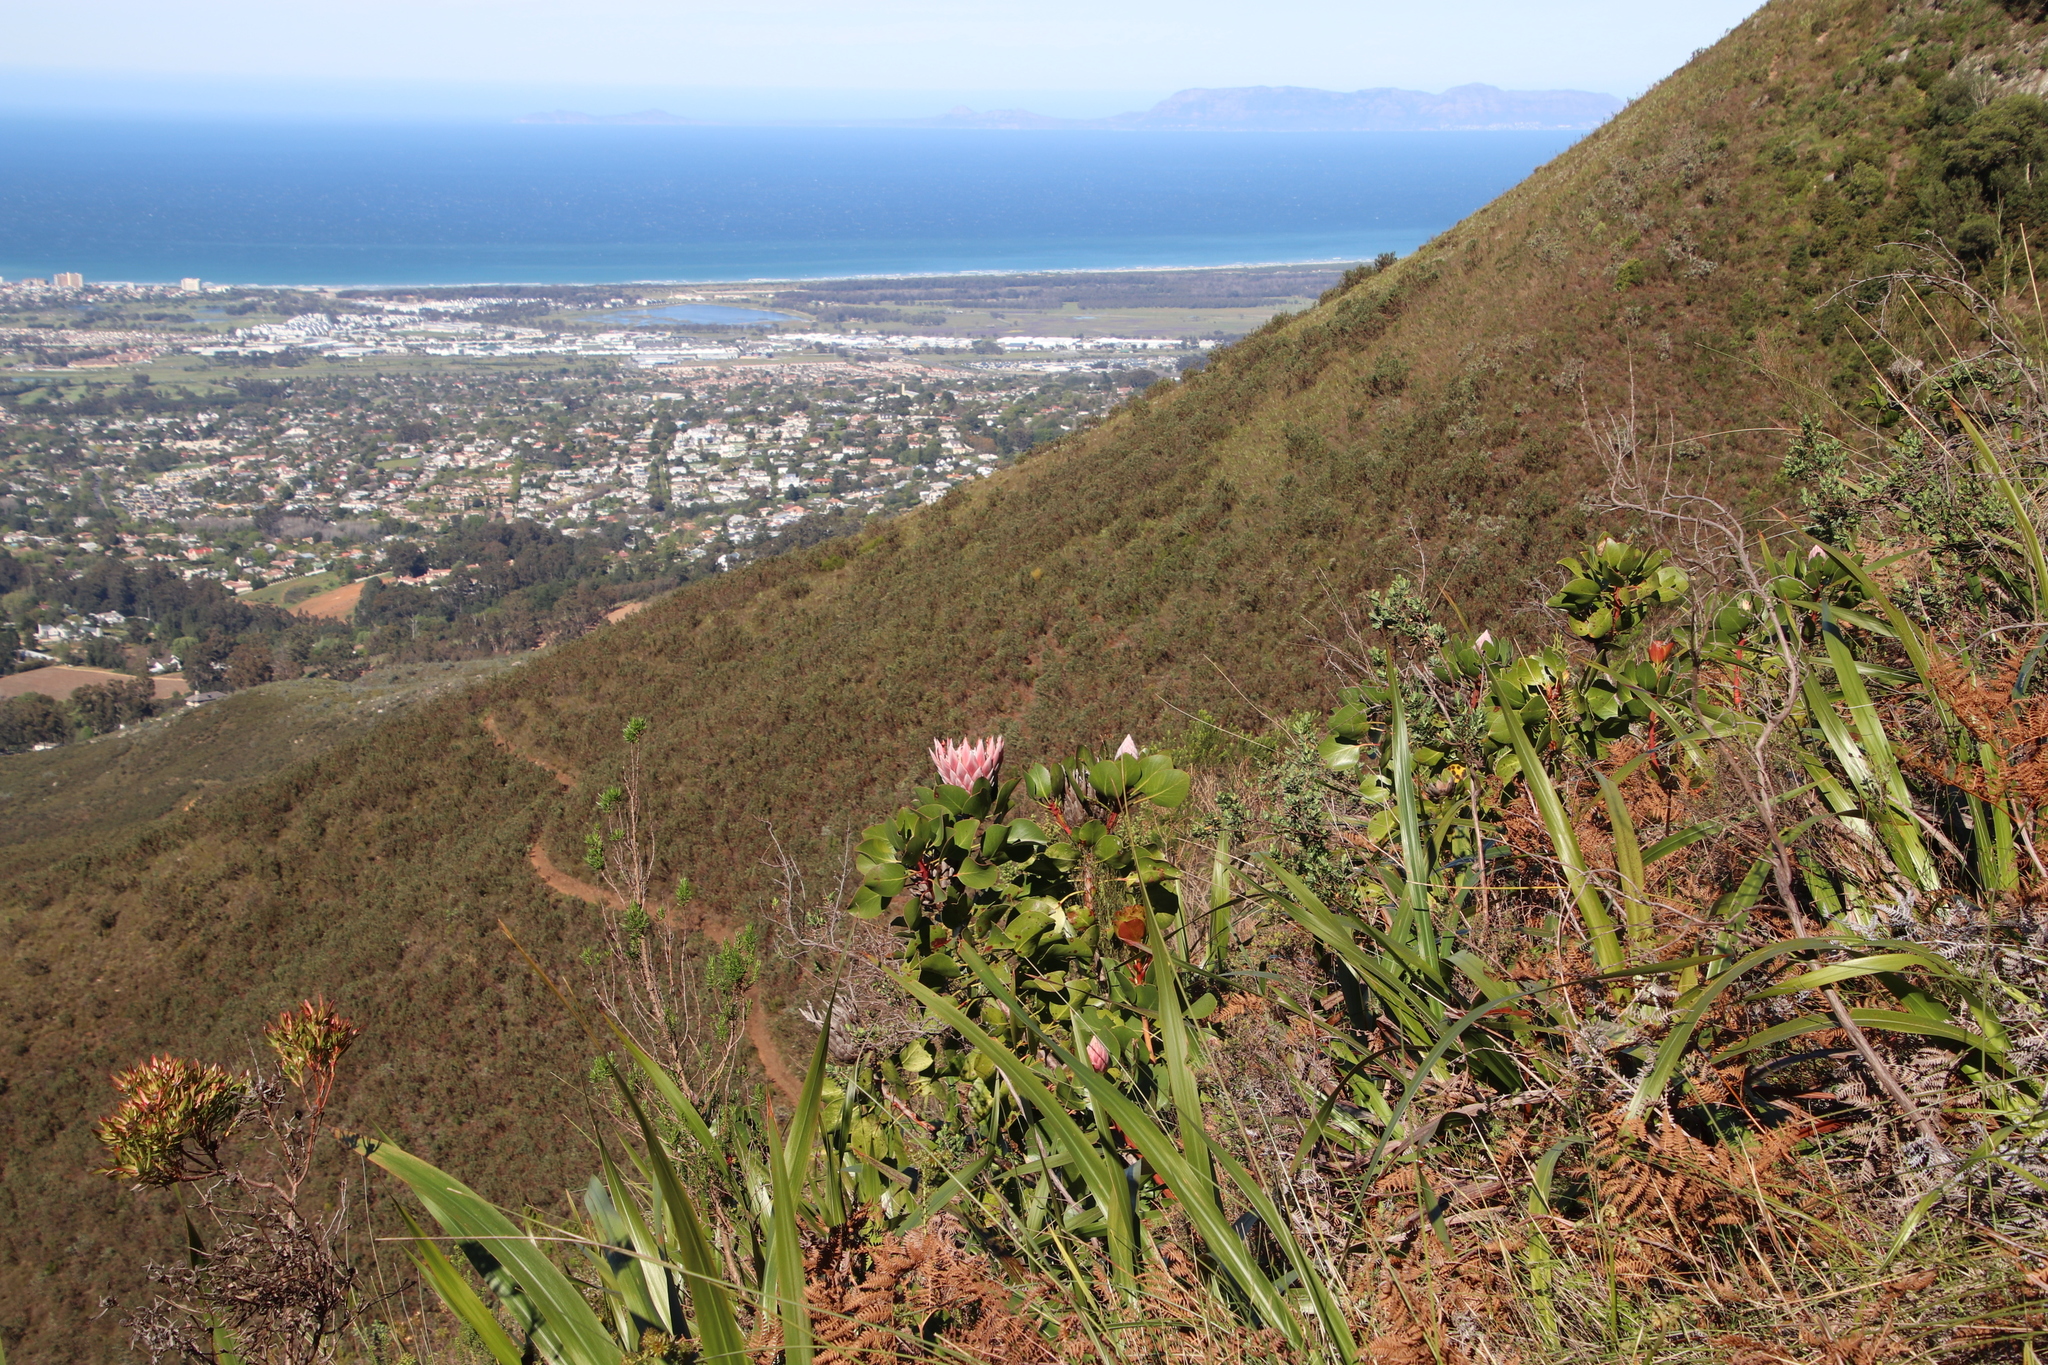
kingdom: Plantae
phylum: Tracheophyta
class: Magnoliopsida
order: Proteales
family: Proteaceae
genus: Protea
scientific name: Protea cynaroides
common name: King protea
